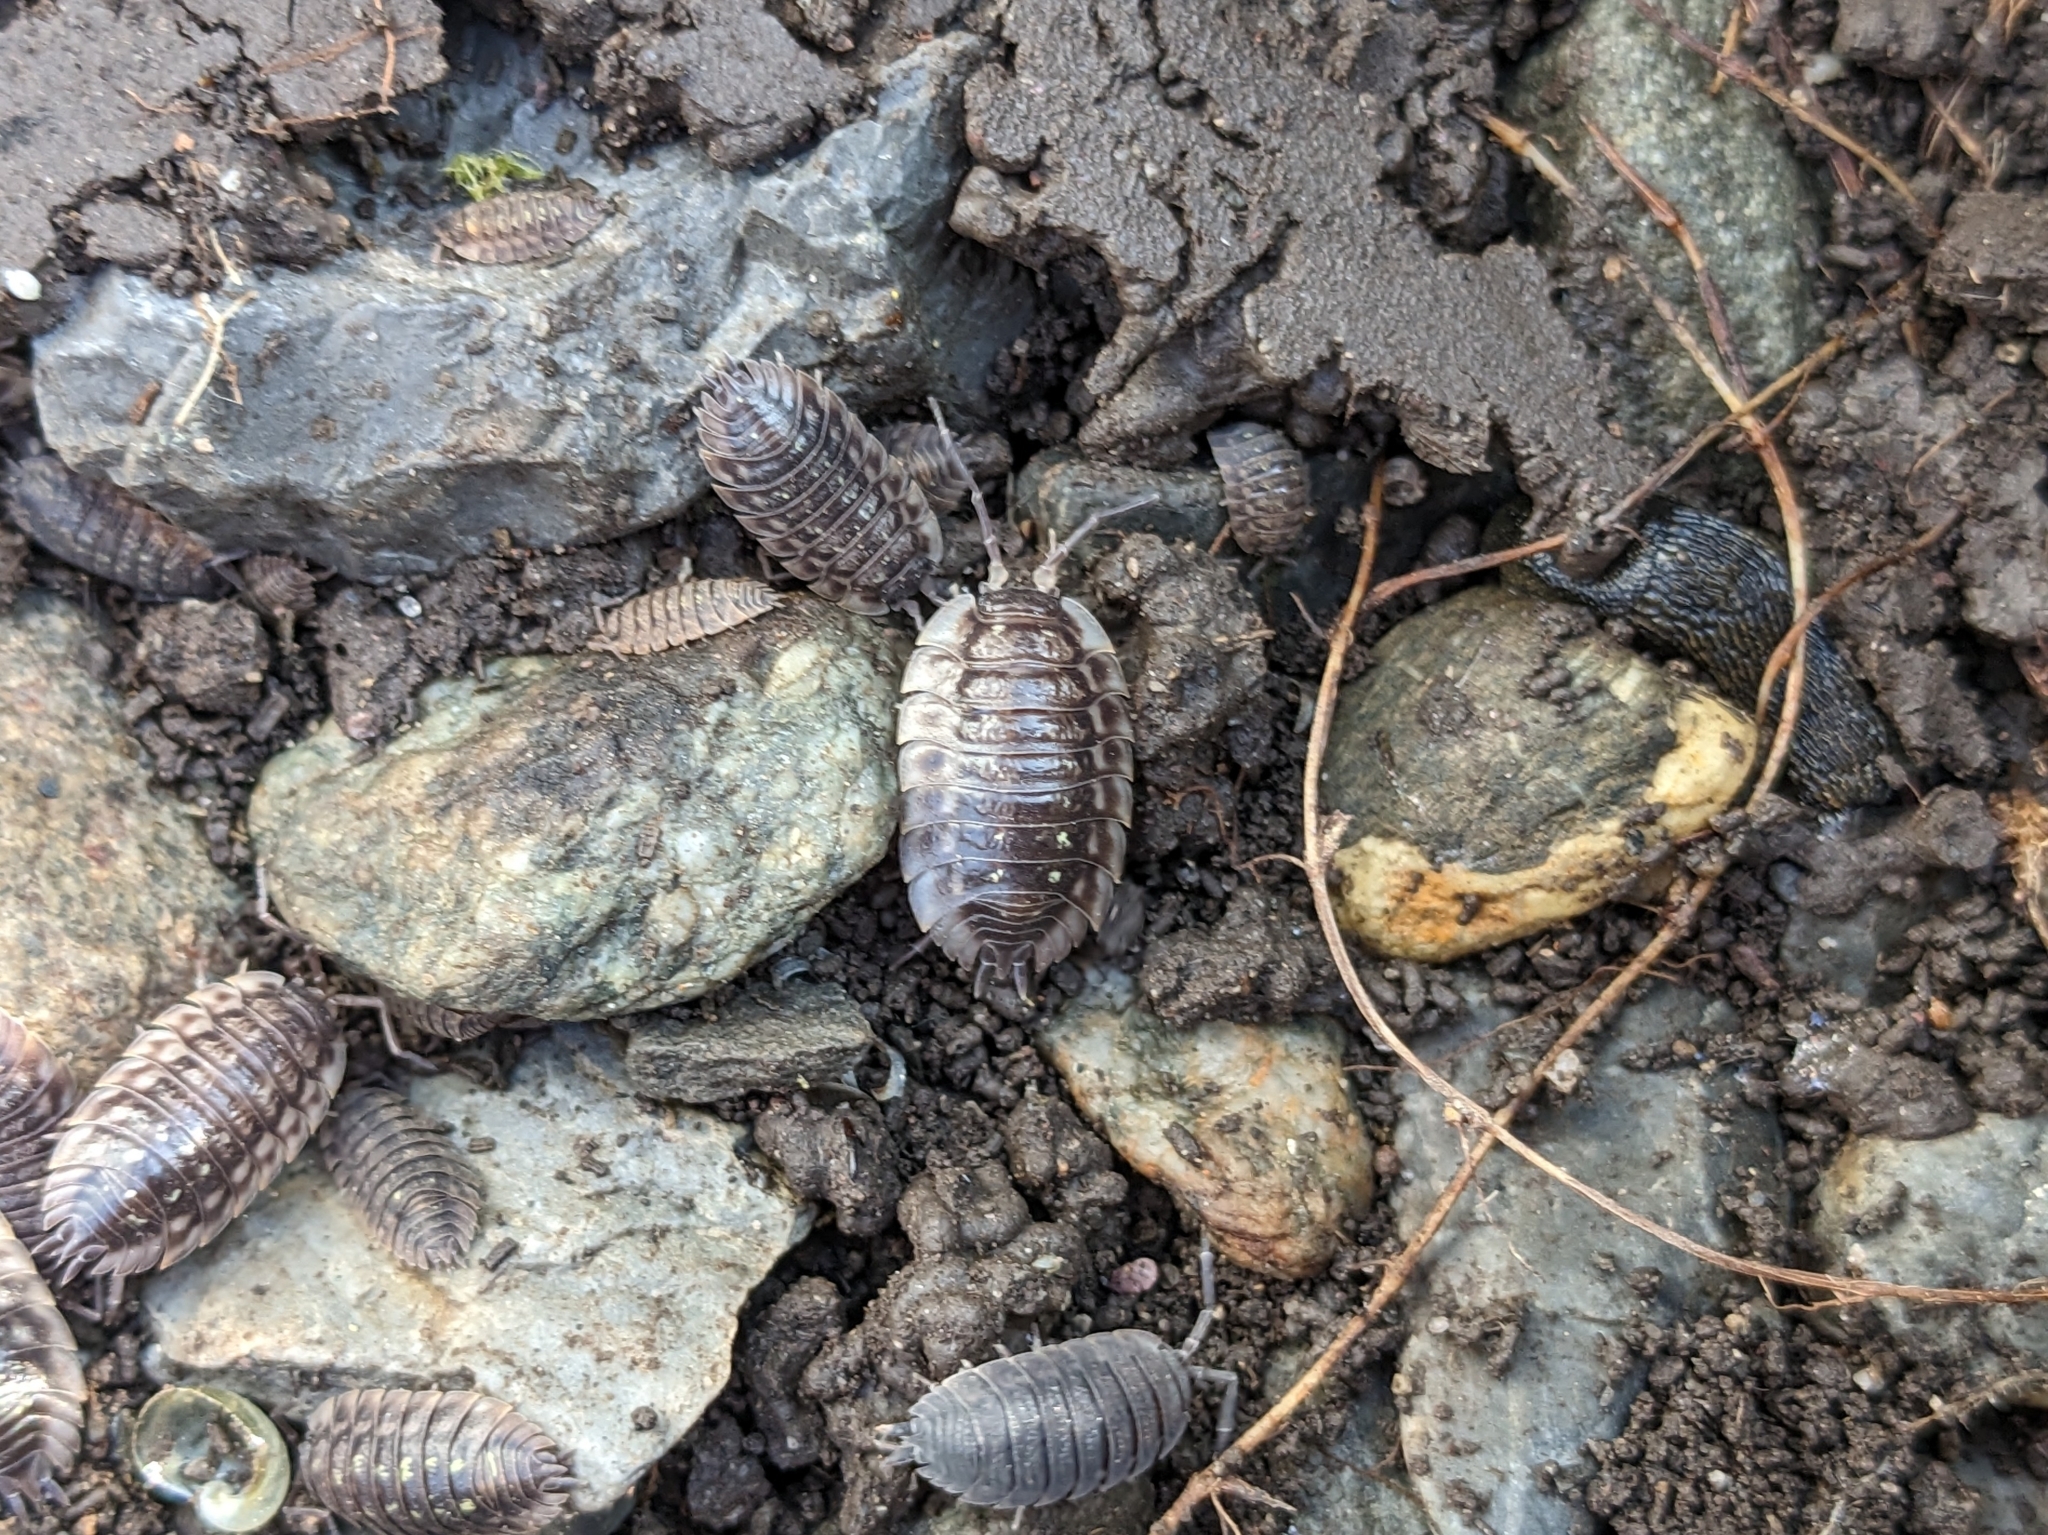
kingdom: Animalia
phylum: Arthropoda
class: Malacostraca
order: Isopoda
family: Oniscidae
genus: Oniscus
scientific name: Oniscus asellus
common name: Common shiny woodlouse
